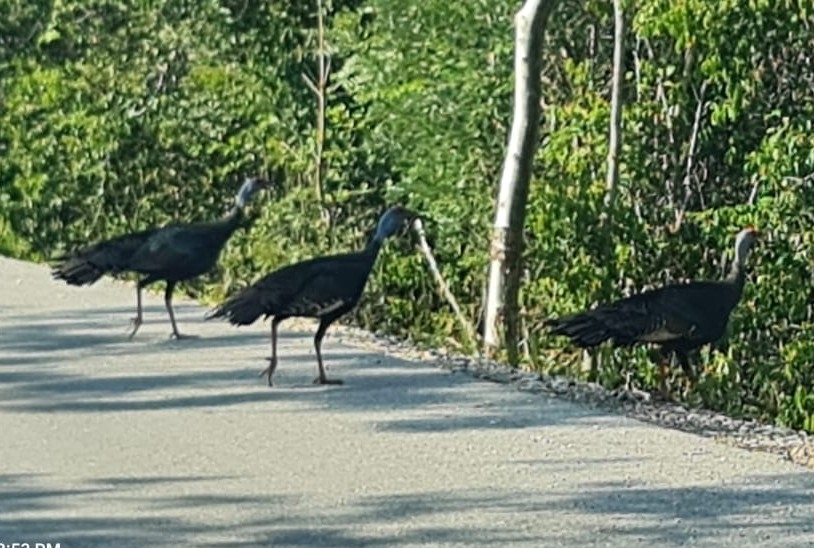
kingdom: Animalia
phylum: Chordata
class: Aves
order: Galliformes
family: Phasianidae
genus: Meleagris
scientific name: Meleagris ocellata
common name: Ocellated turkey
